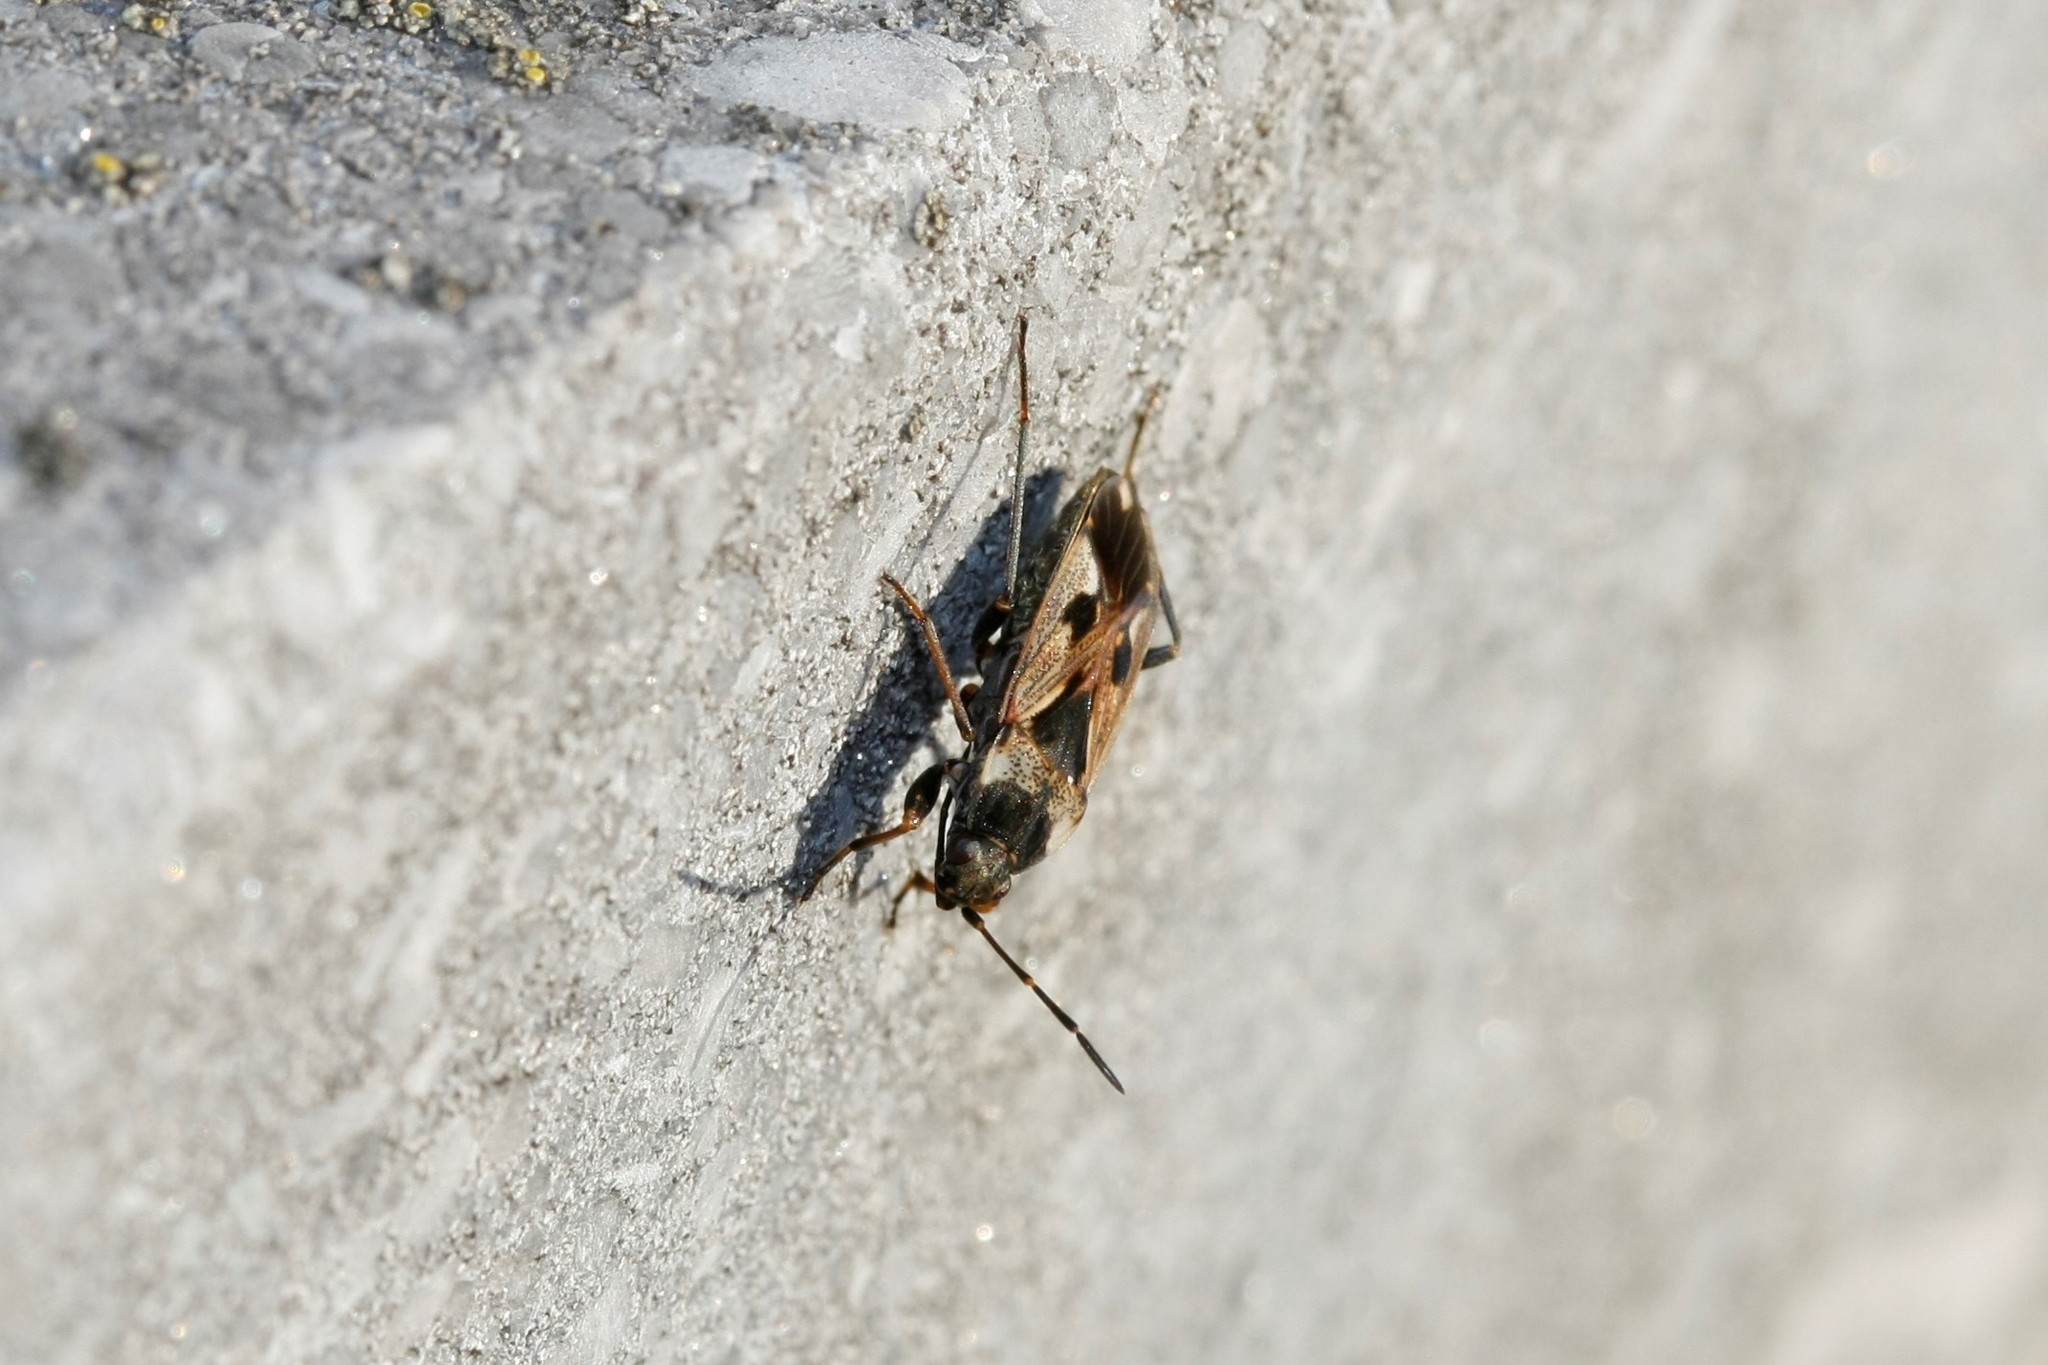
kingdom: Animalia
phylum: Arthropoda
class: Insecta
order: Hemiptera
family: Rhyparochromidae
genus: Rhyparochromus
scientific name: Rhyparochromus vulgaris
